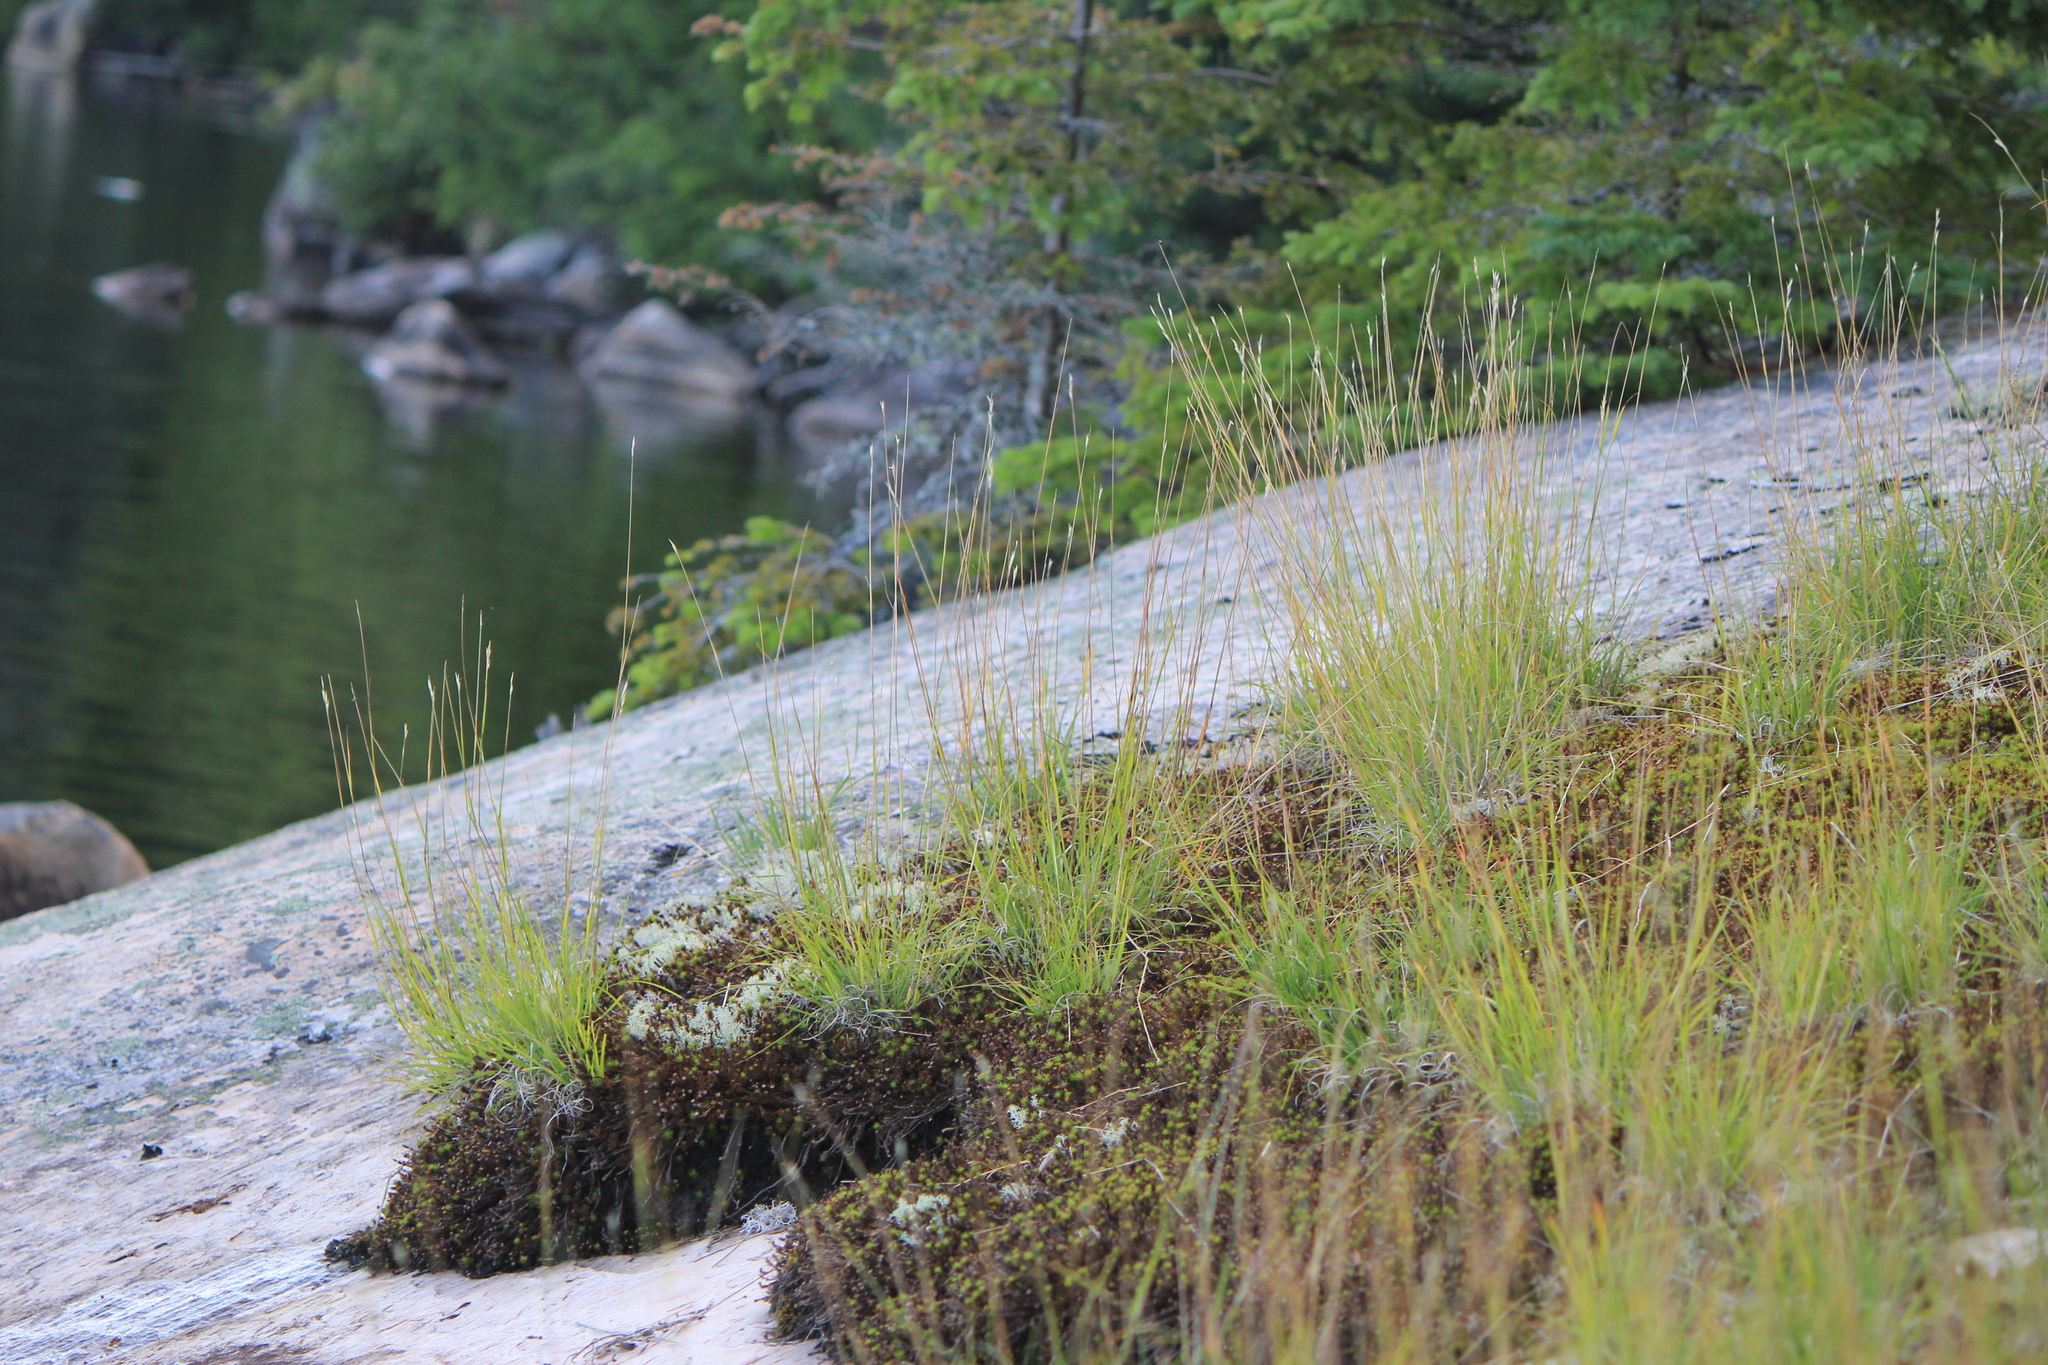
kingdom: Plantae
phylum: Tracheophyta
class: Liliopsida
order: Poales
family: Poaceae
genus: Danthonia
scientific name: Danthonia spicata
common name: Common wild oatgrass
